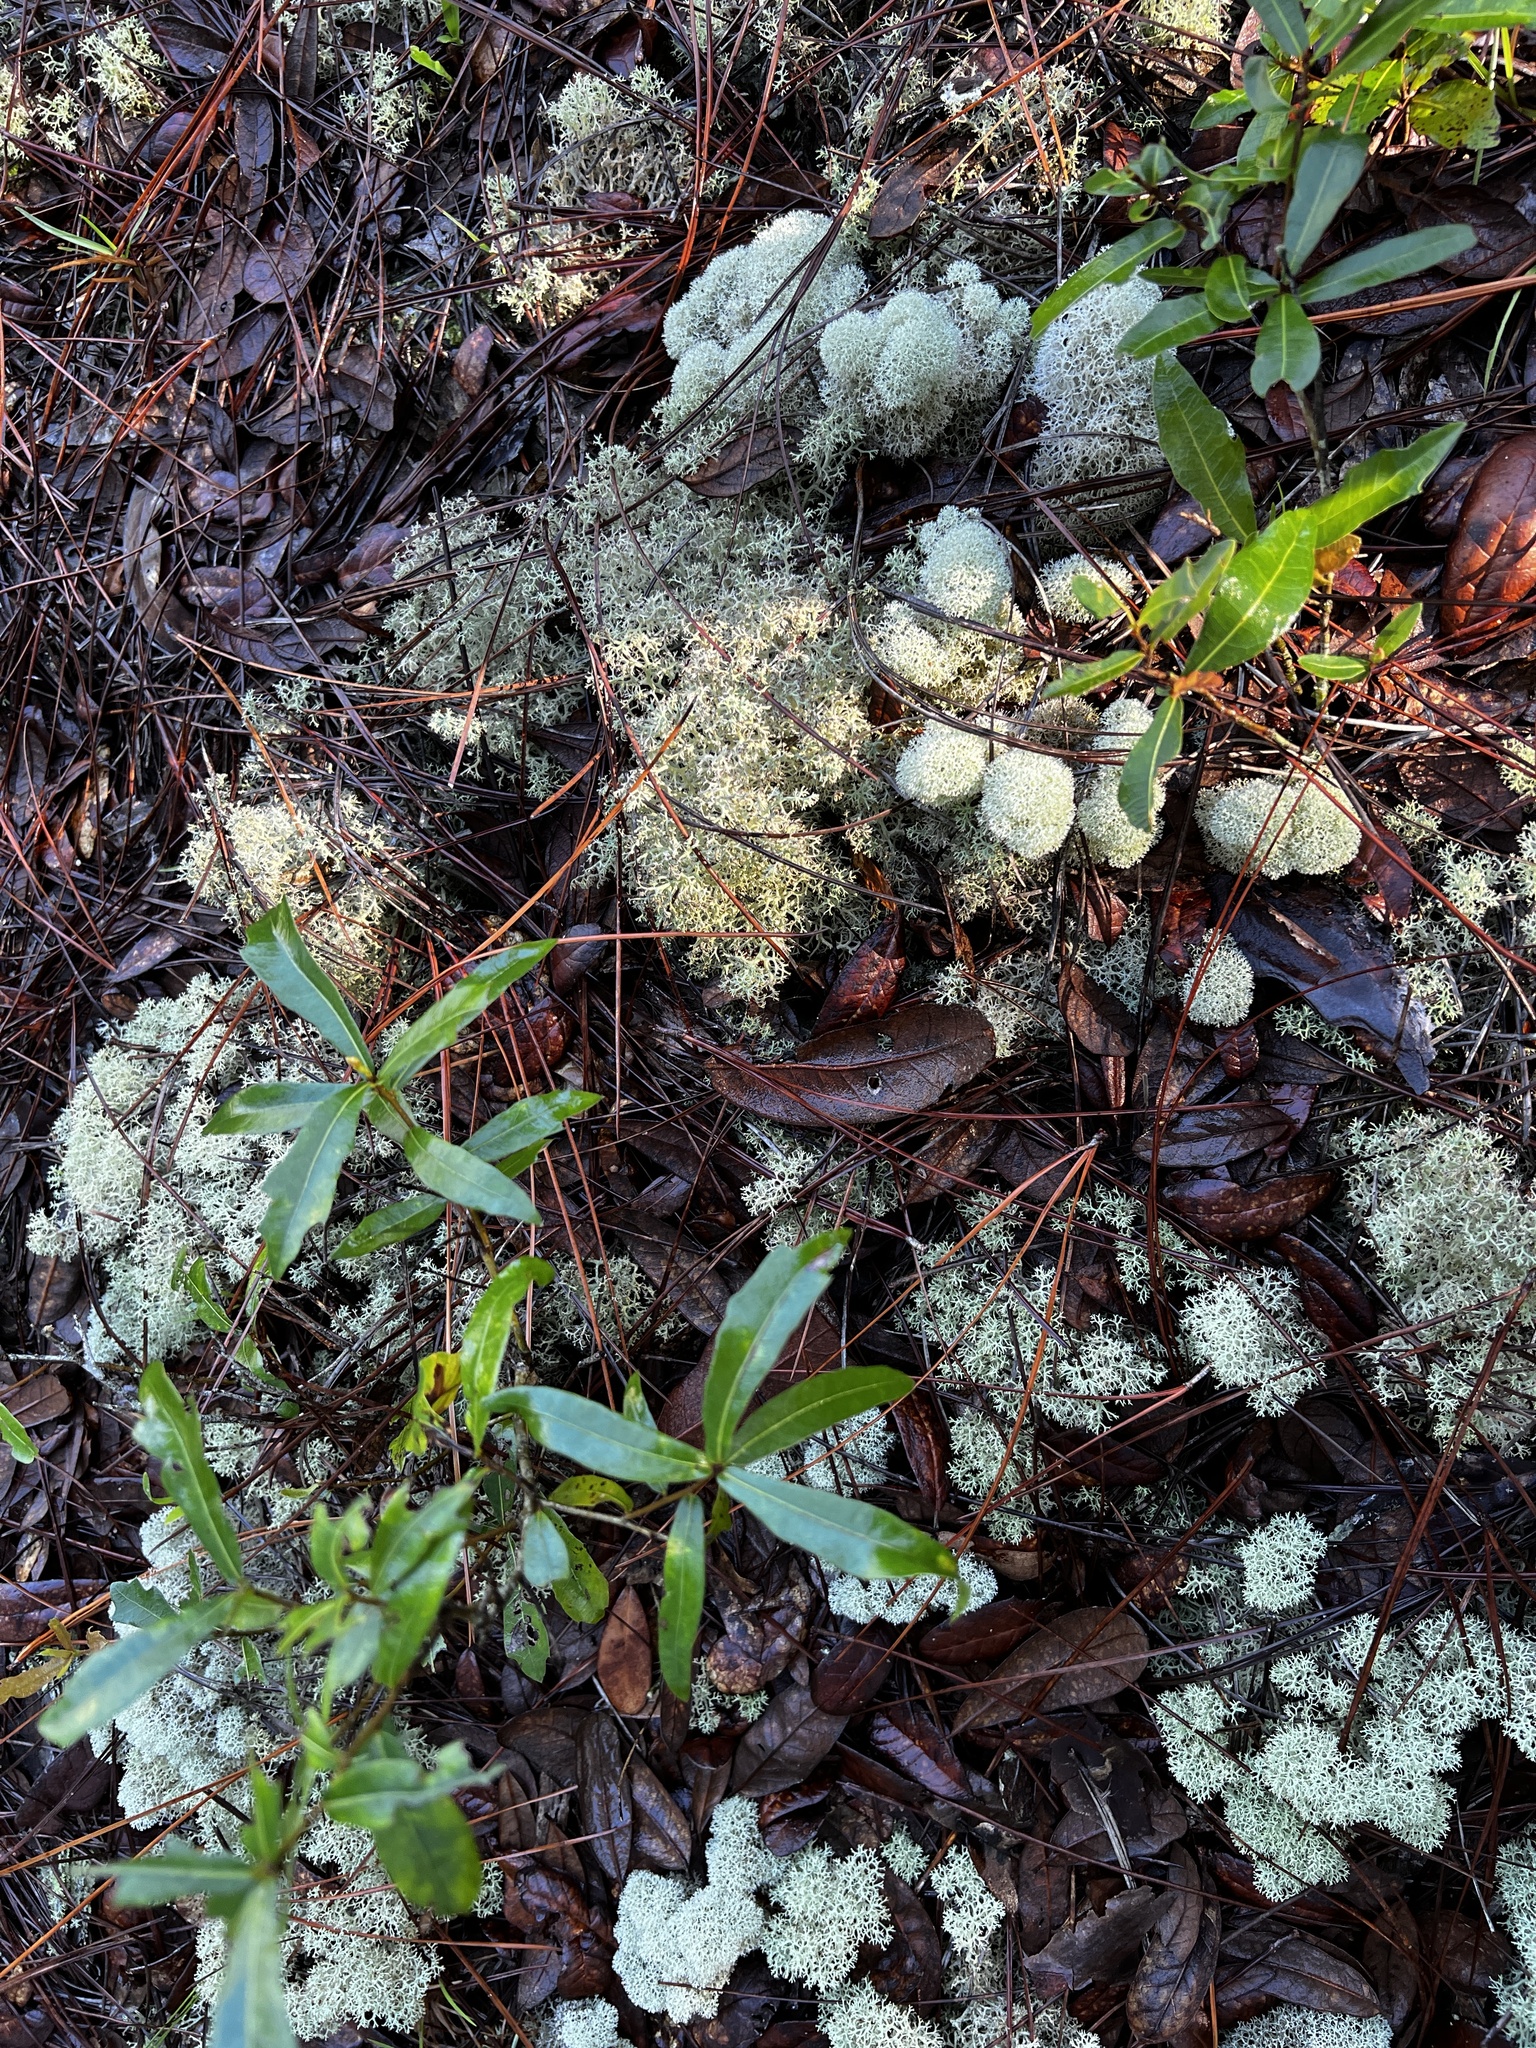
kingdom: Fungi
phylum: Ascomycota
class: Lecanoromycetes
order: Lecanorales
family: Cladoniaceae
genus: Cladonia
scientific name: Cladonia evansii
